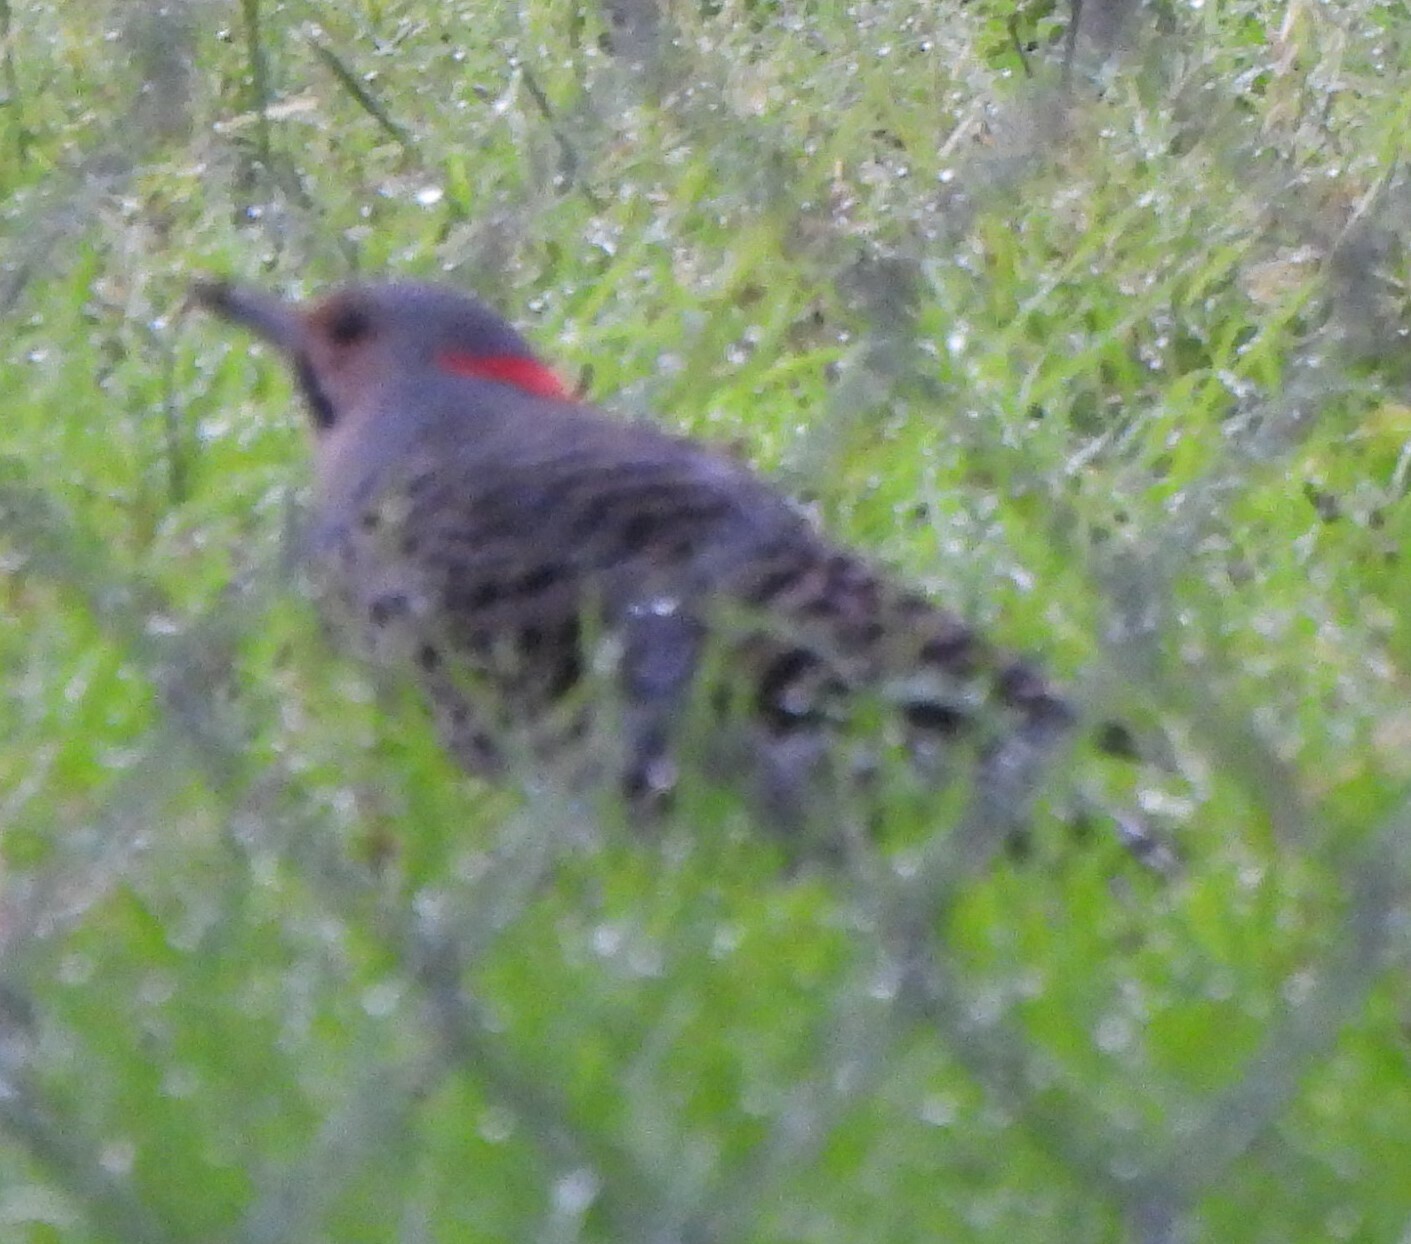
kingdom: Animalia
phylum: Chordata
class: Aves
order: Piciformes
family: Picidae
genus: Colaptes
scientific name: Colaptes auratus
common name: Northern flicker
